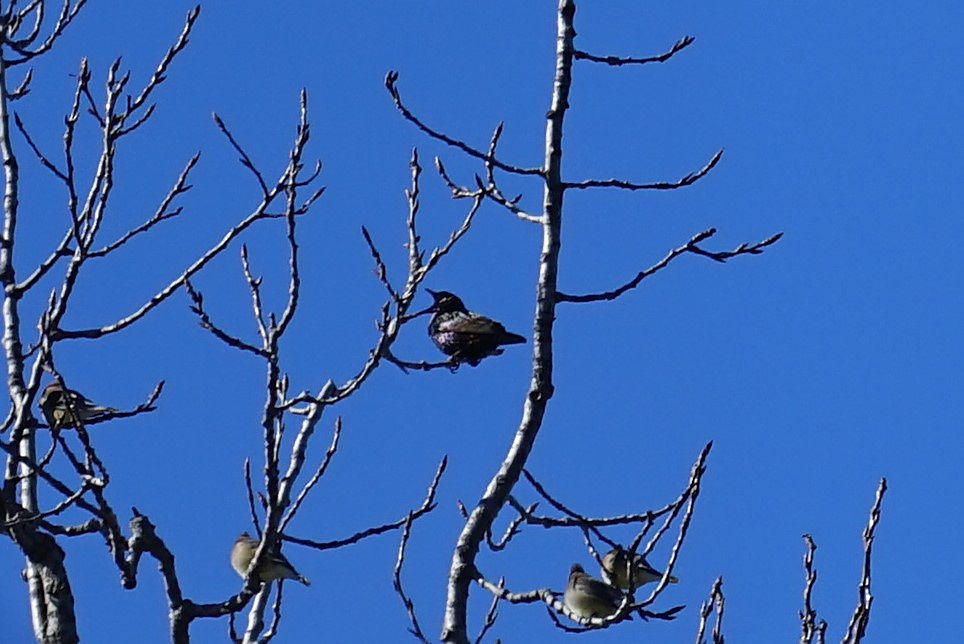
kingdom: Animalia
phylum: Chordata
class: Aves
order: Passeriformes
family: Sturnidae
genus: Sturnus
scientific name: Sturnus vulgaris
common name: Common starling
